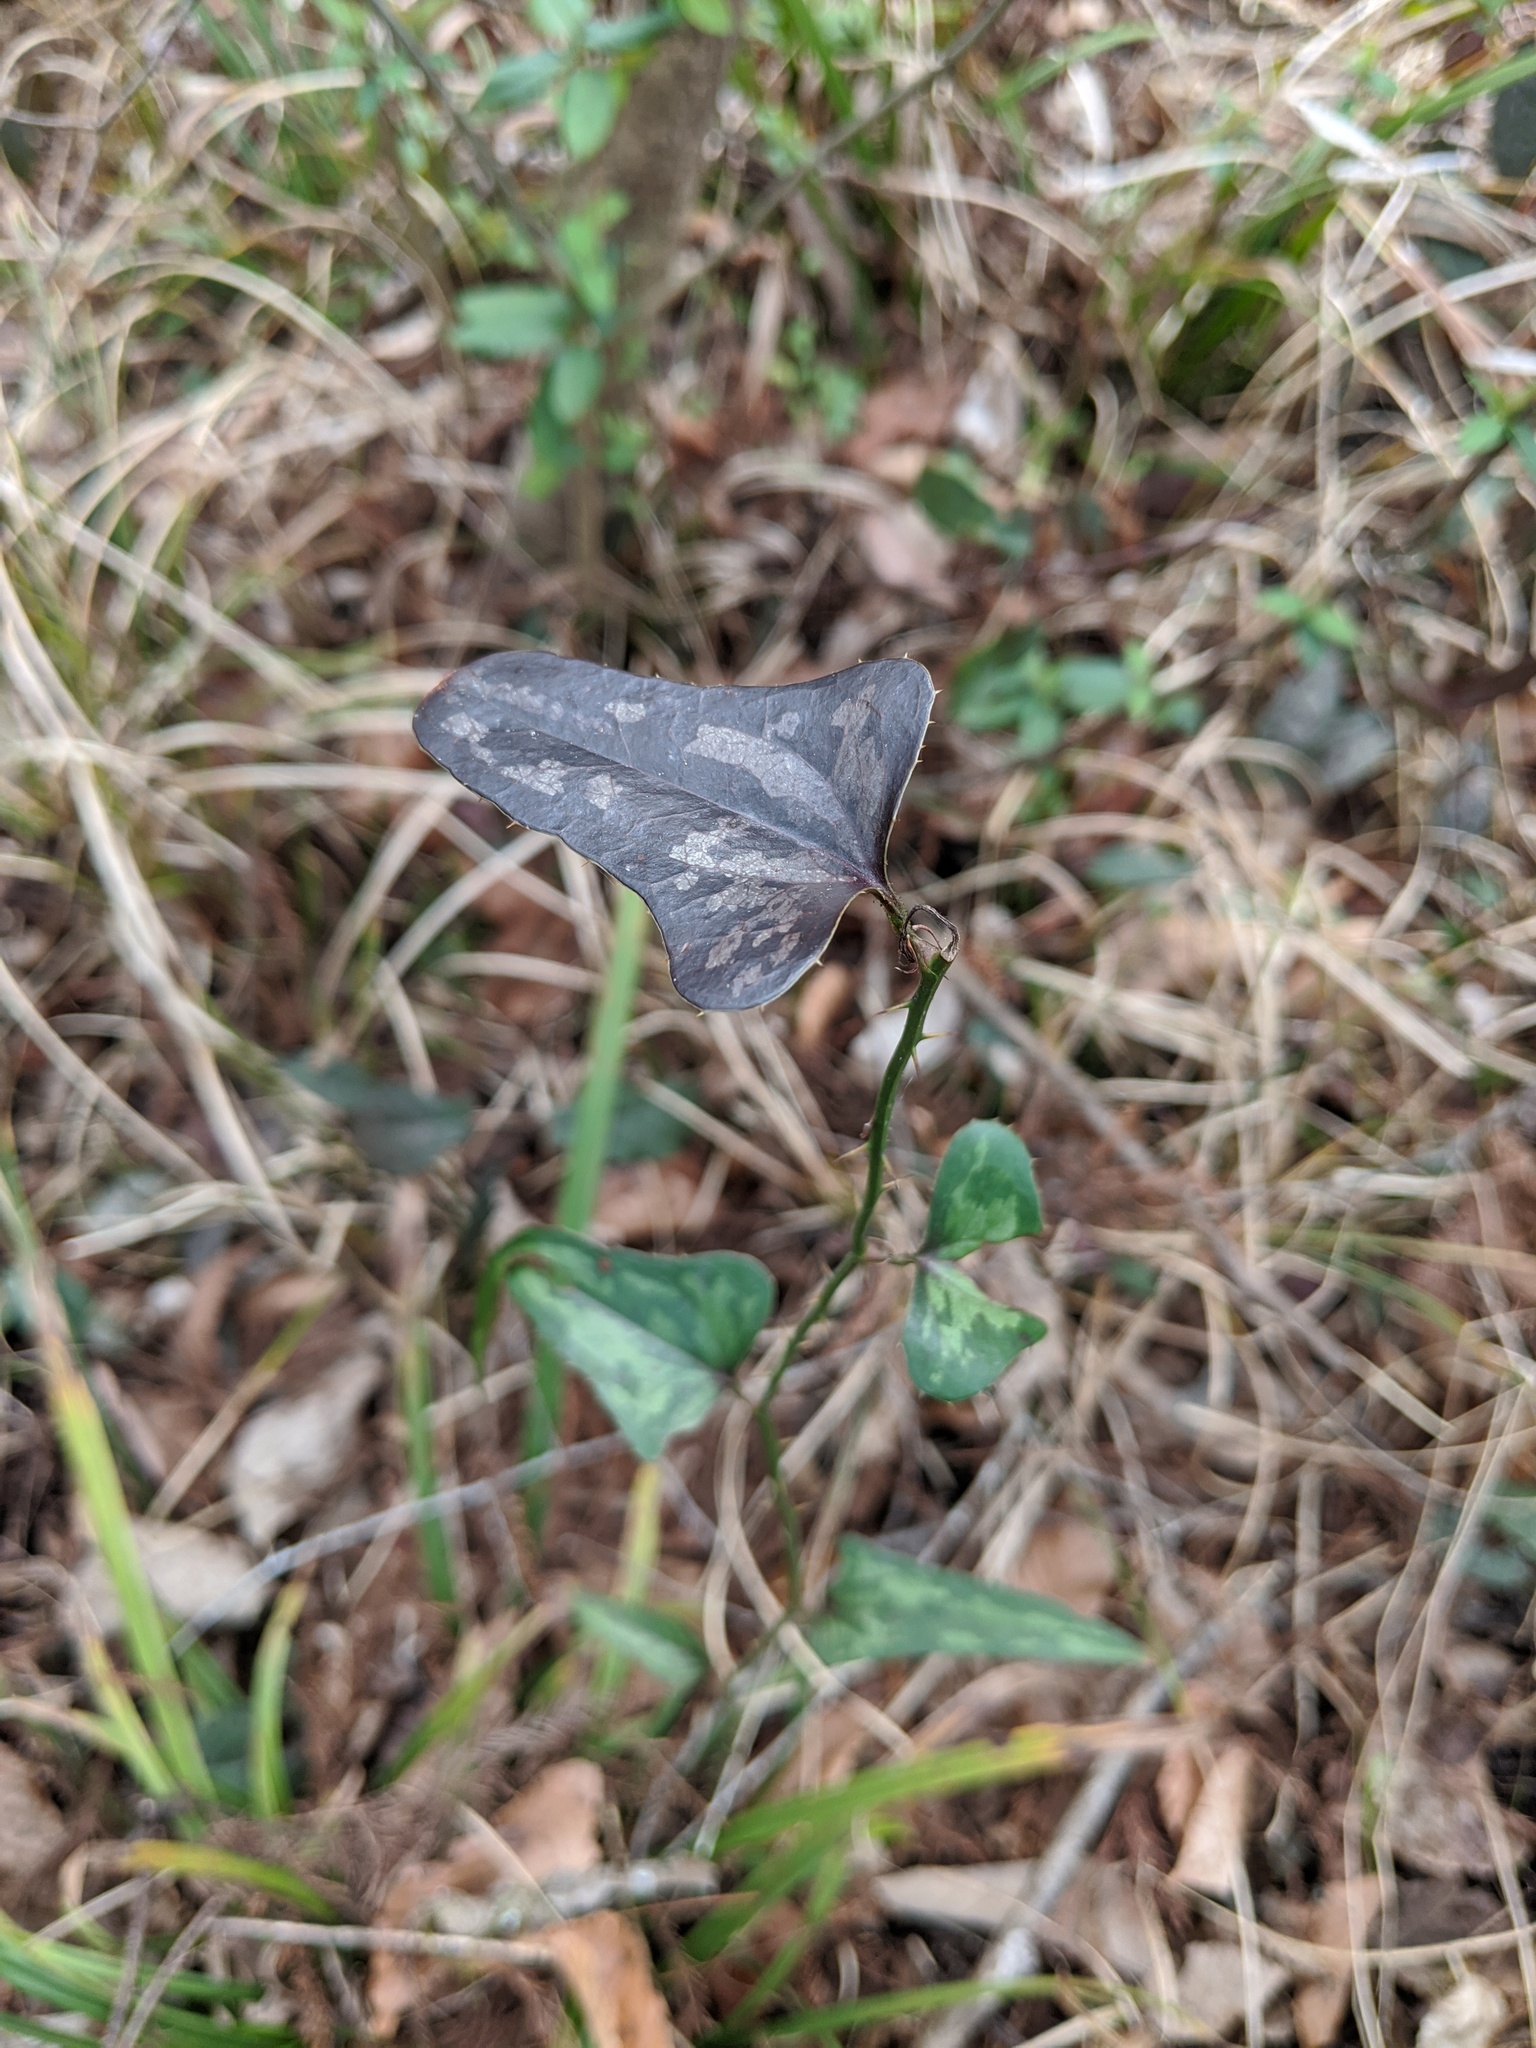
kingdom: Plantae
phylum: Tracheophyta
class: Liliopsida
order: Liliales
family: Smilacaceae
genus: Smilax
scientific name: Smilax bona-nox
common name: Catbrier
